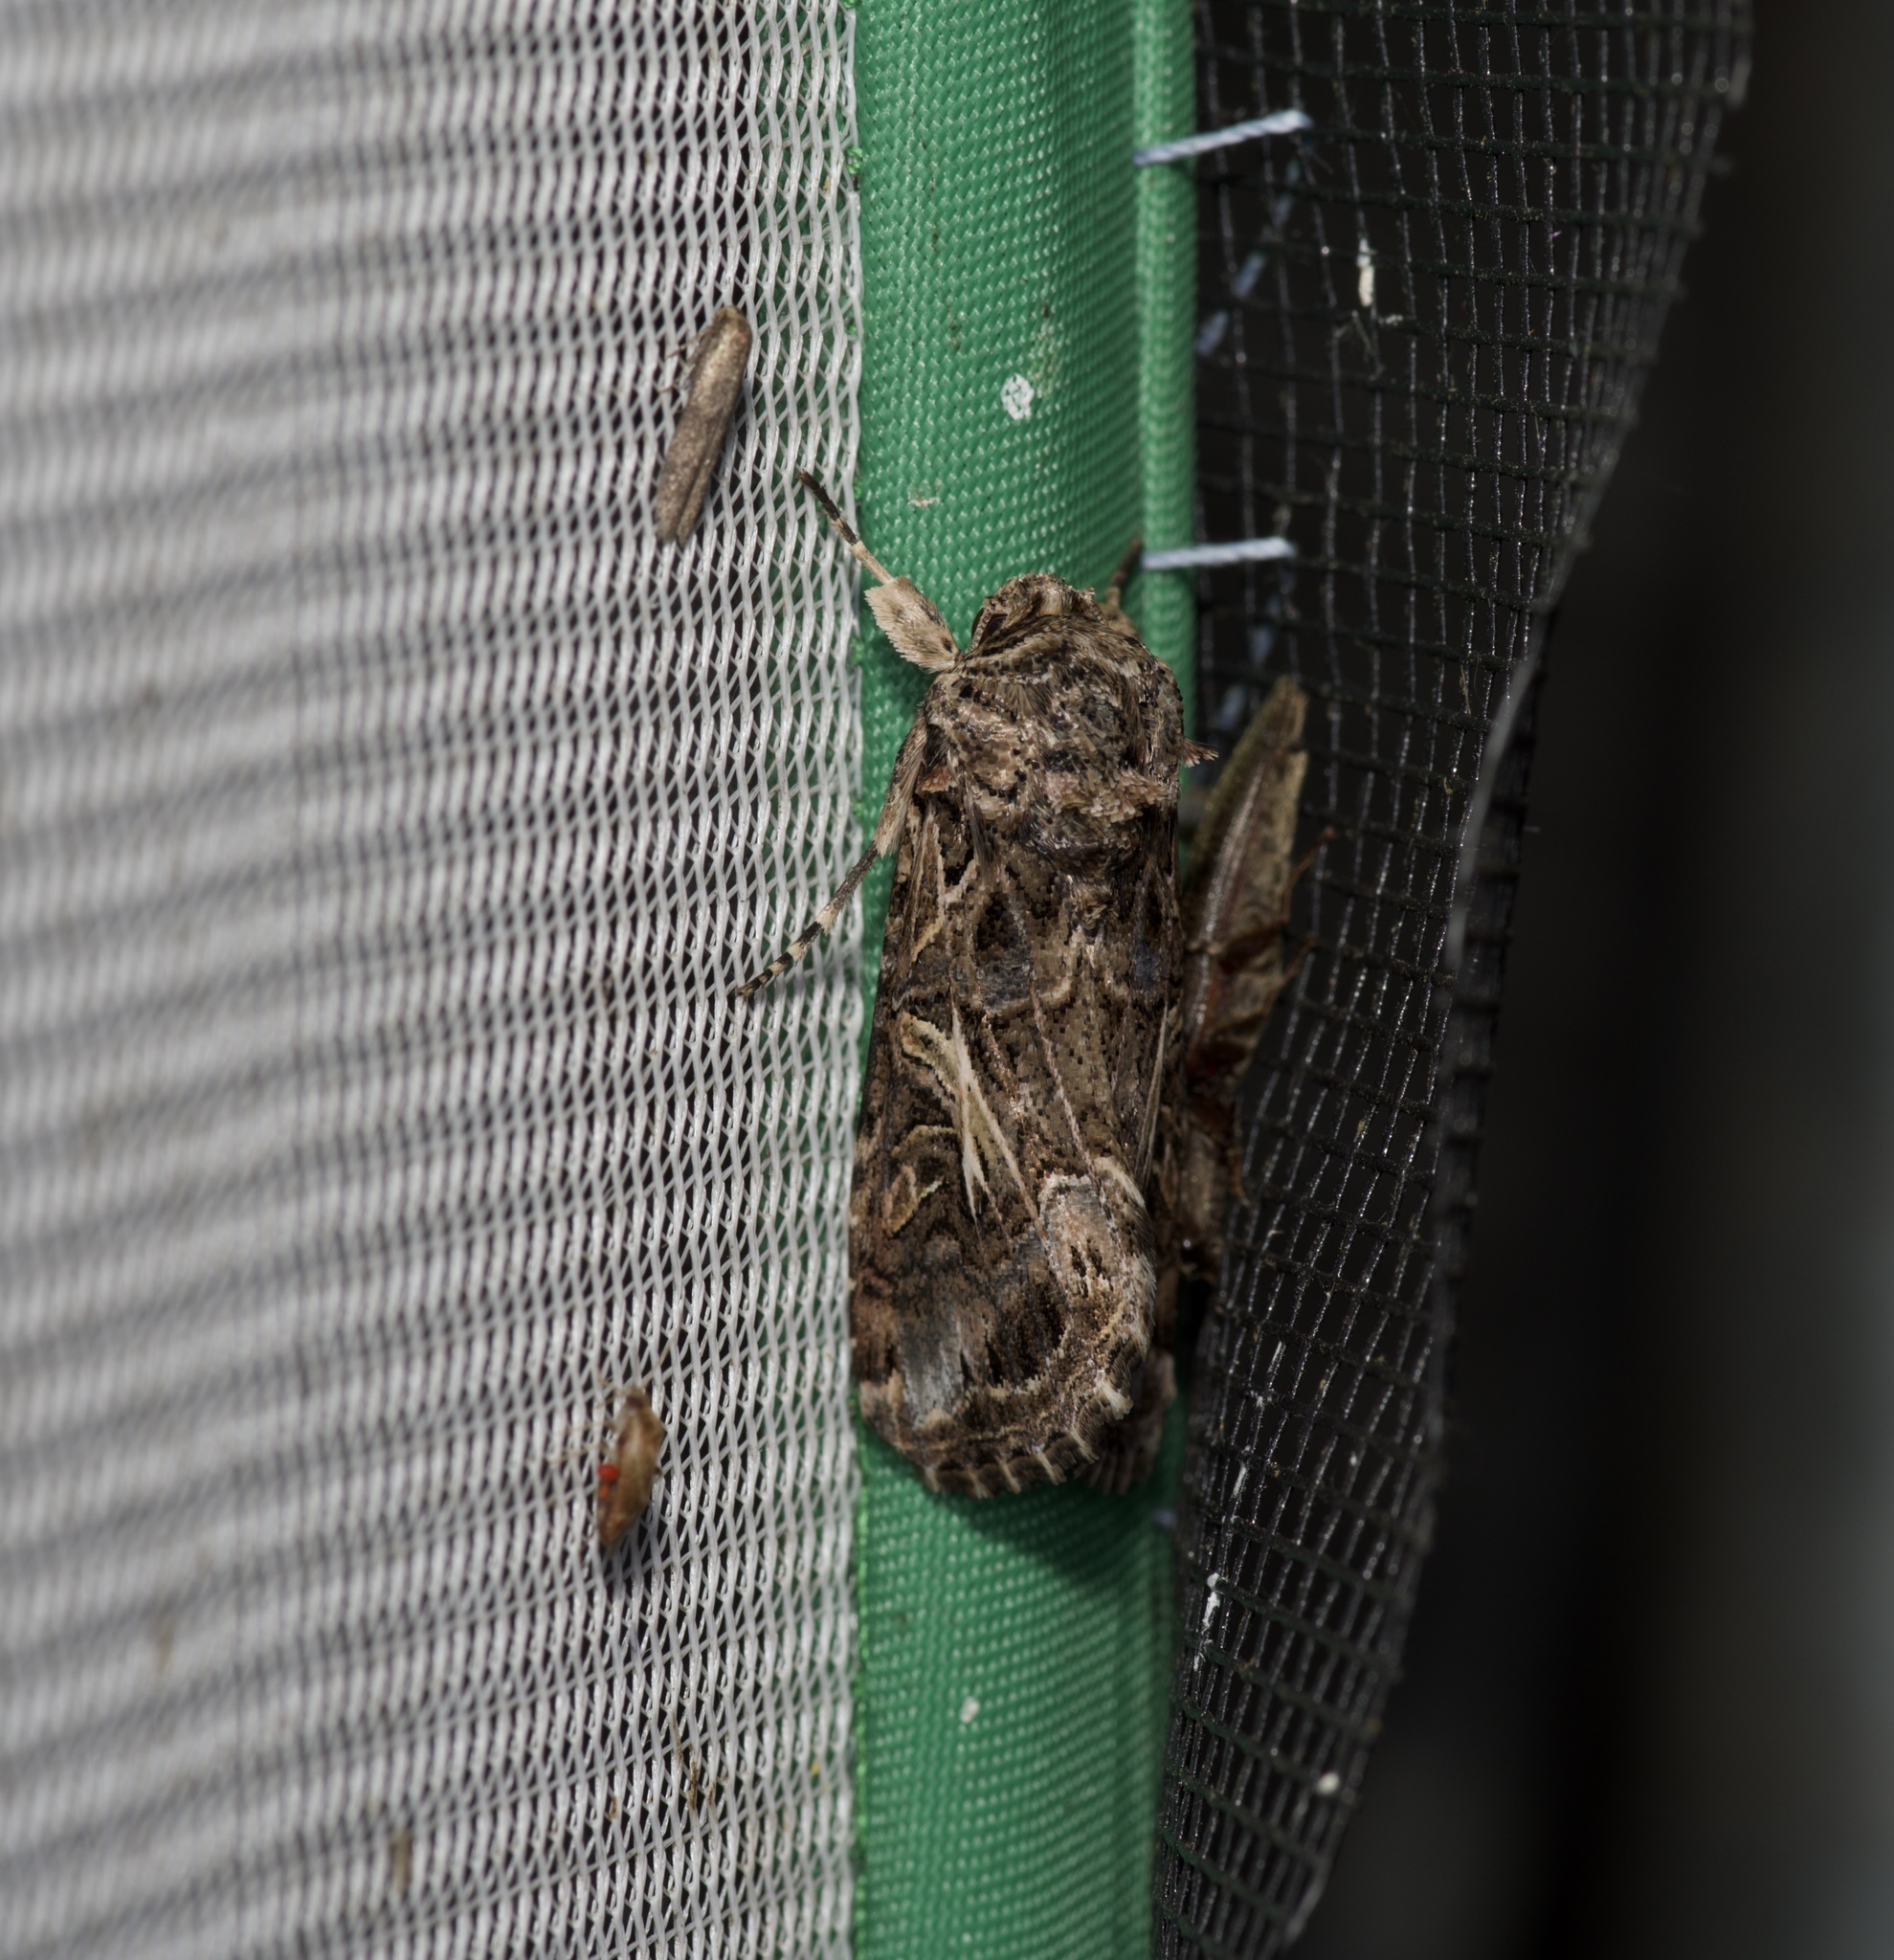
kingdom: Animalia
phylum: Arthropoda
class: Insecta
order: Lepidoptera
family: Noctuidae
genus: Spodoptera
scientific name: Spodoptera ornithogalli
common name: Yellow-striped armyworm
